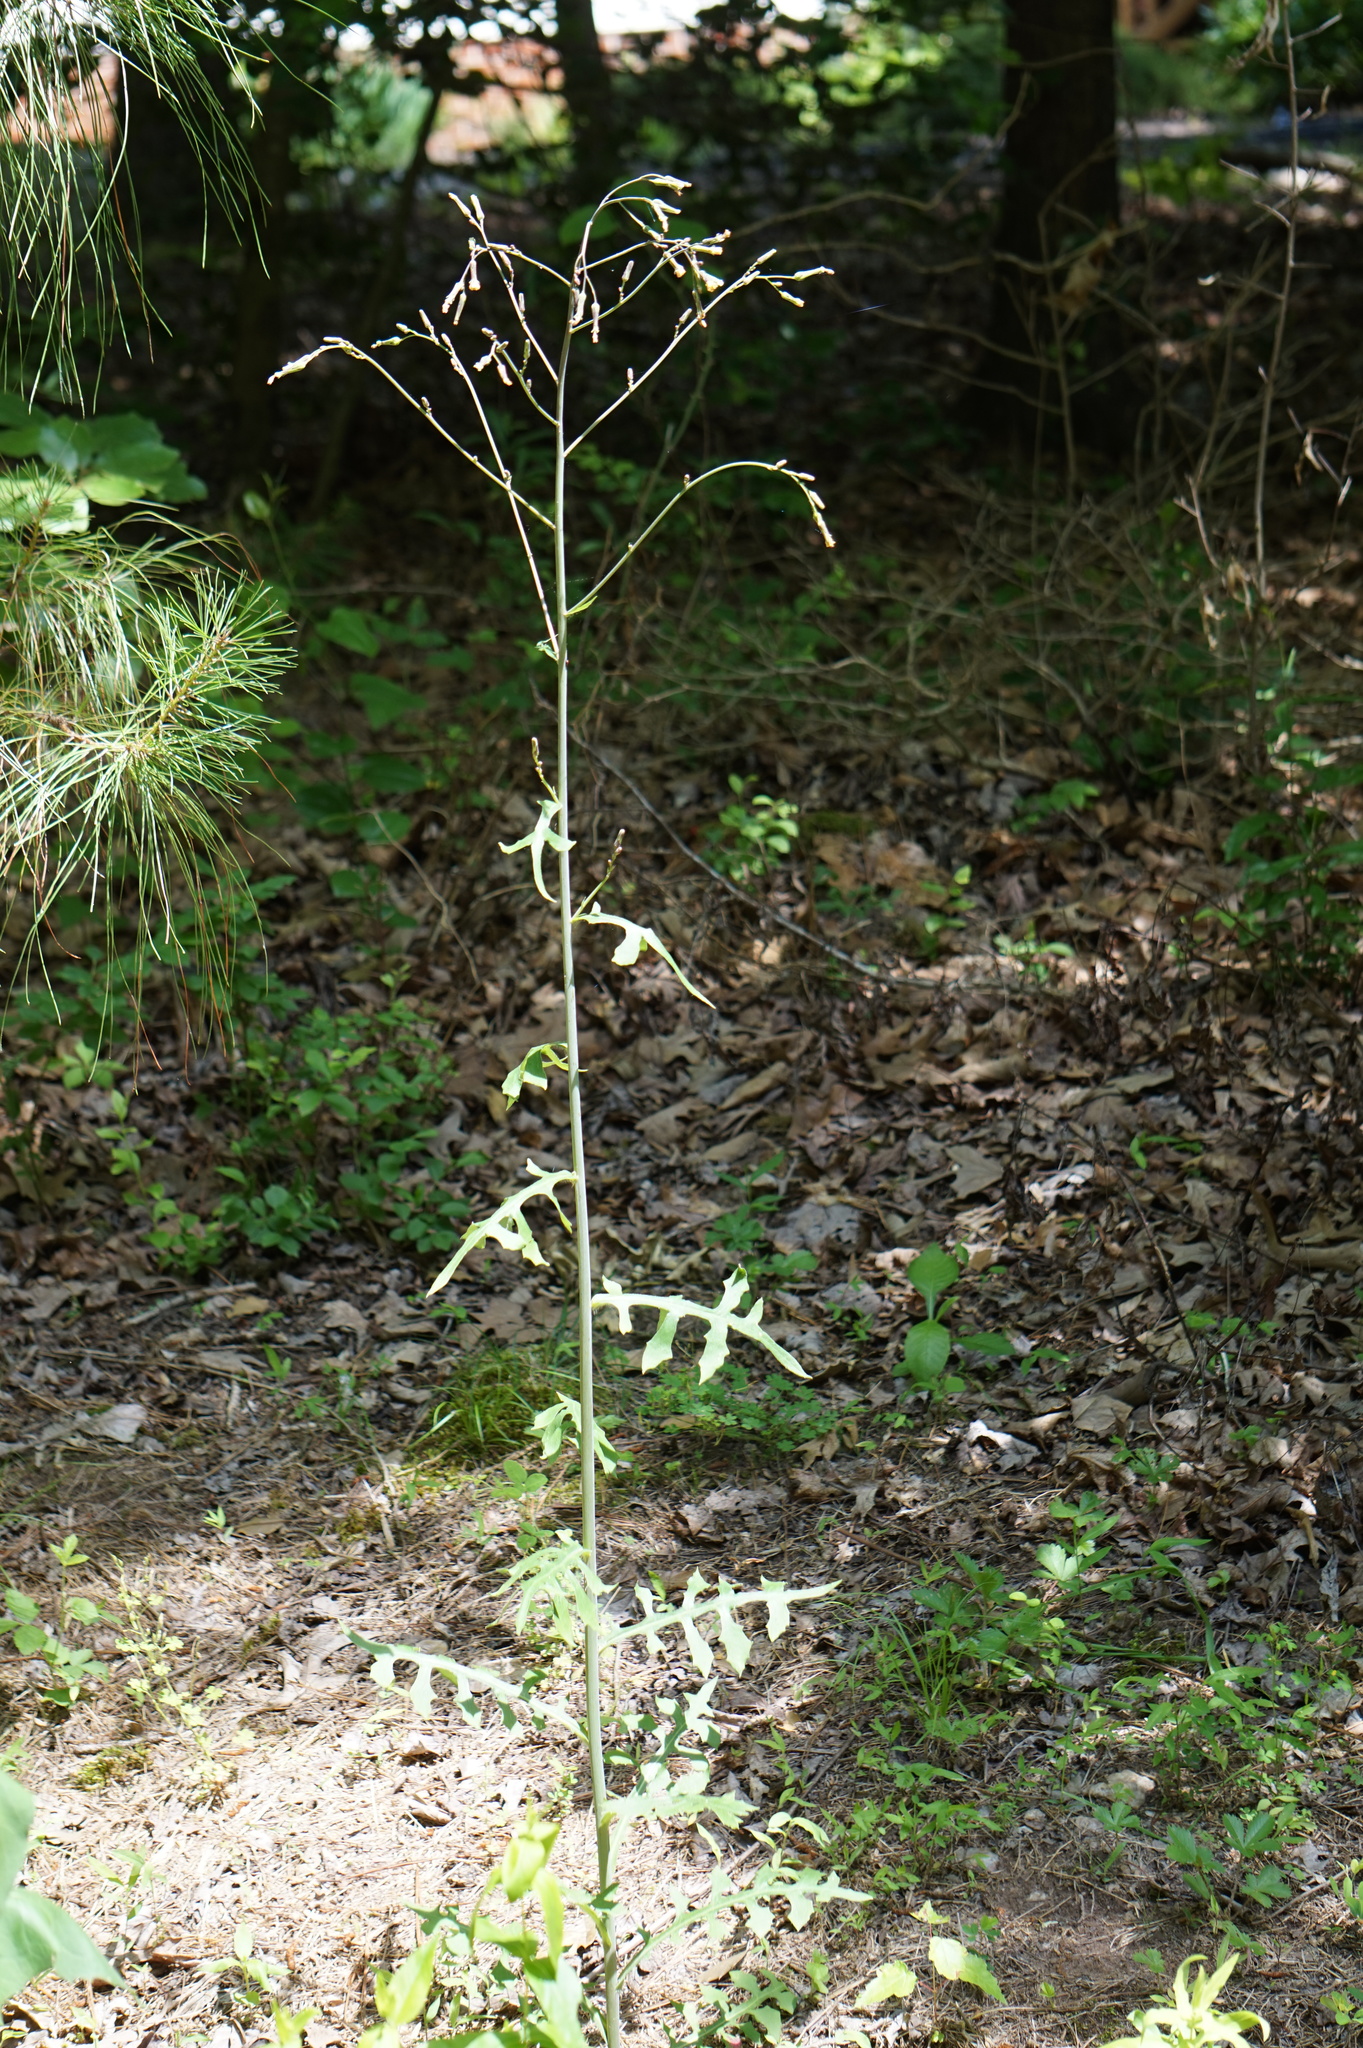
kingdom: Plantae
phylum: Tracheophyta
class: Magnoliopsida
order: Asterales
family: Asteraceae
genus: Lactuca
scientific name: Lactuca hirsuta
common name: Hairy lettuce
